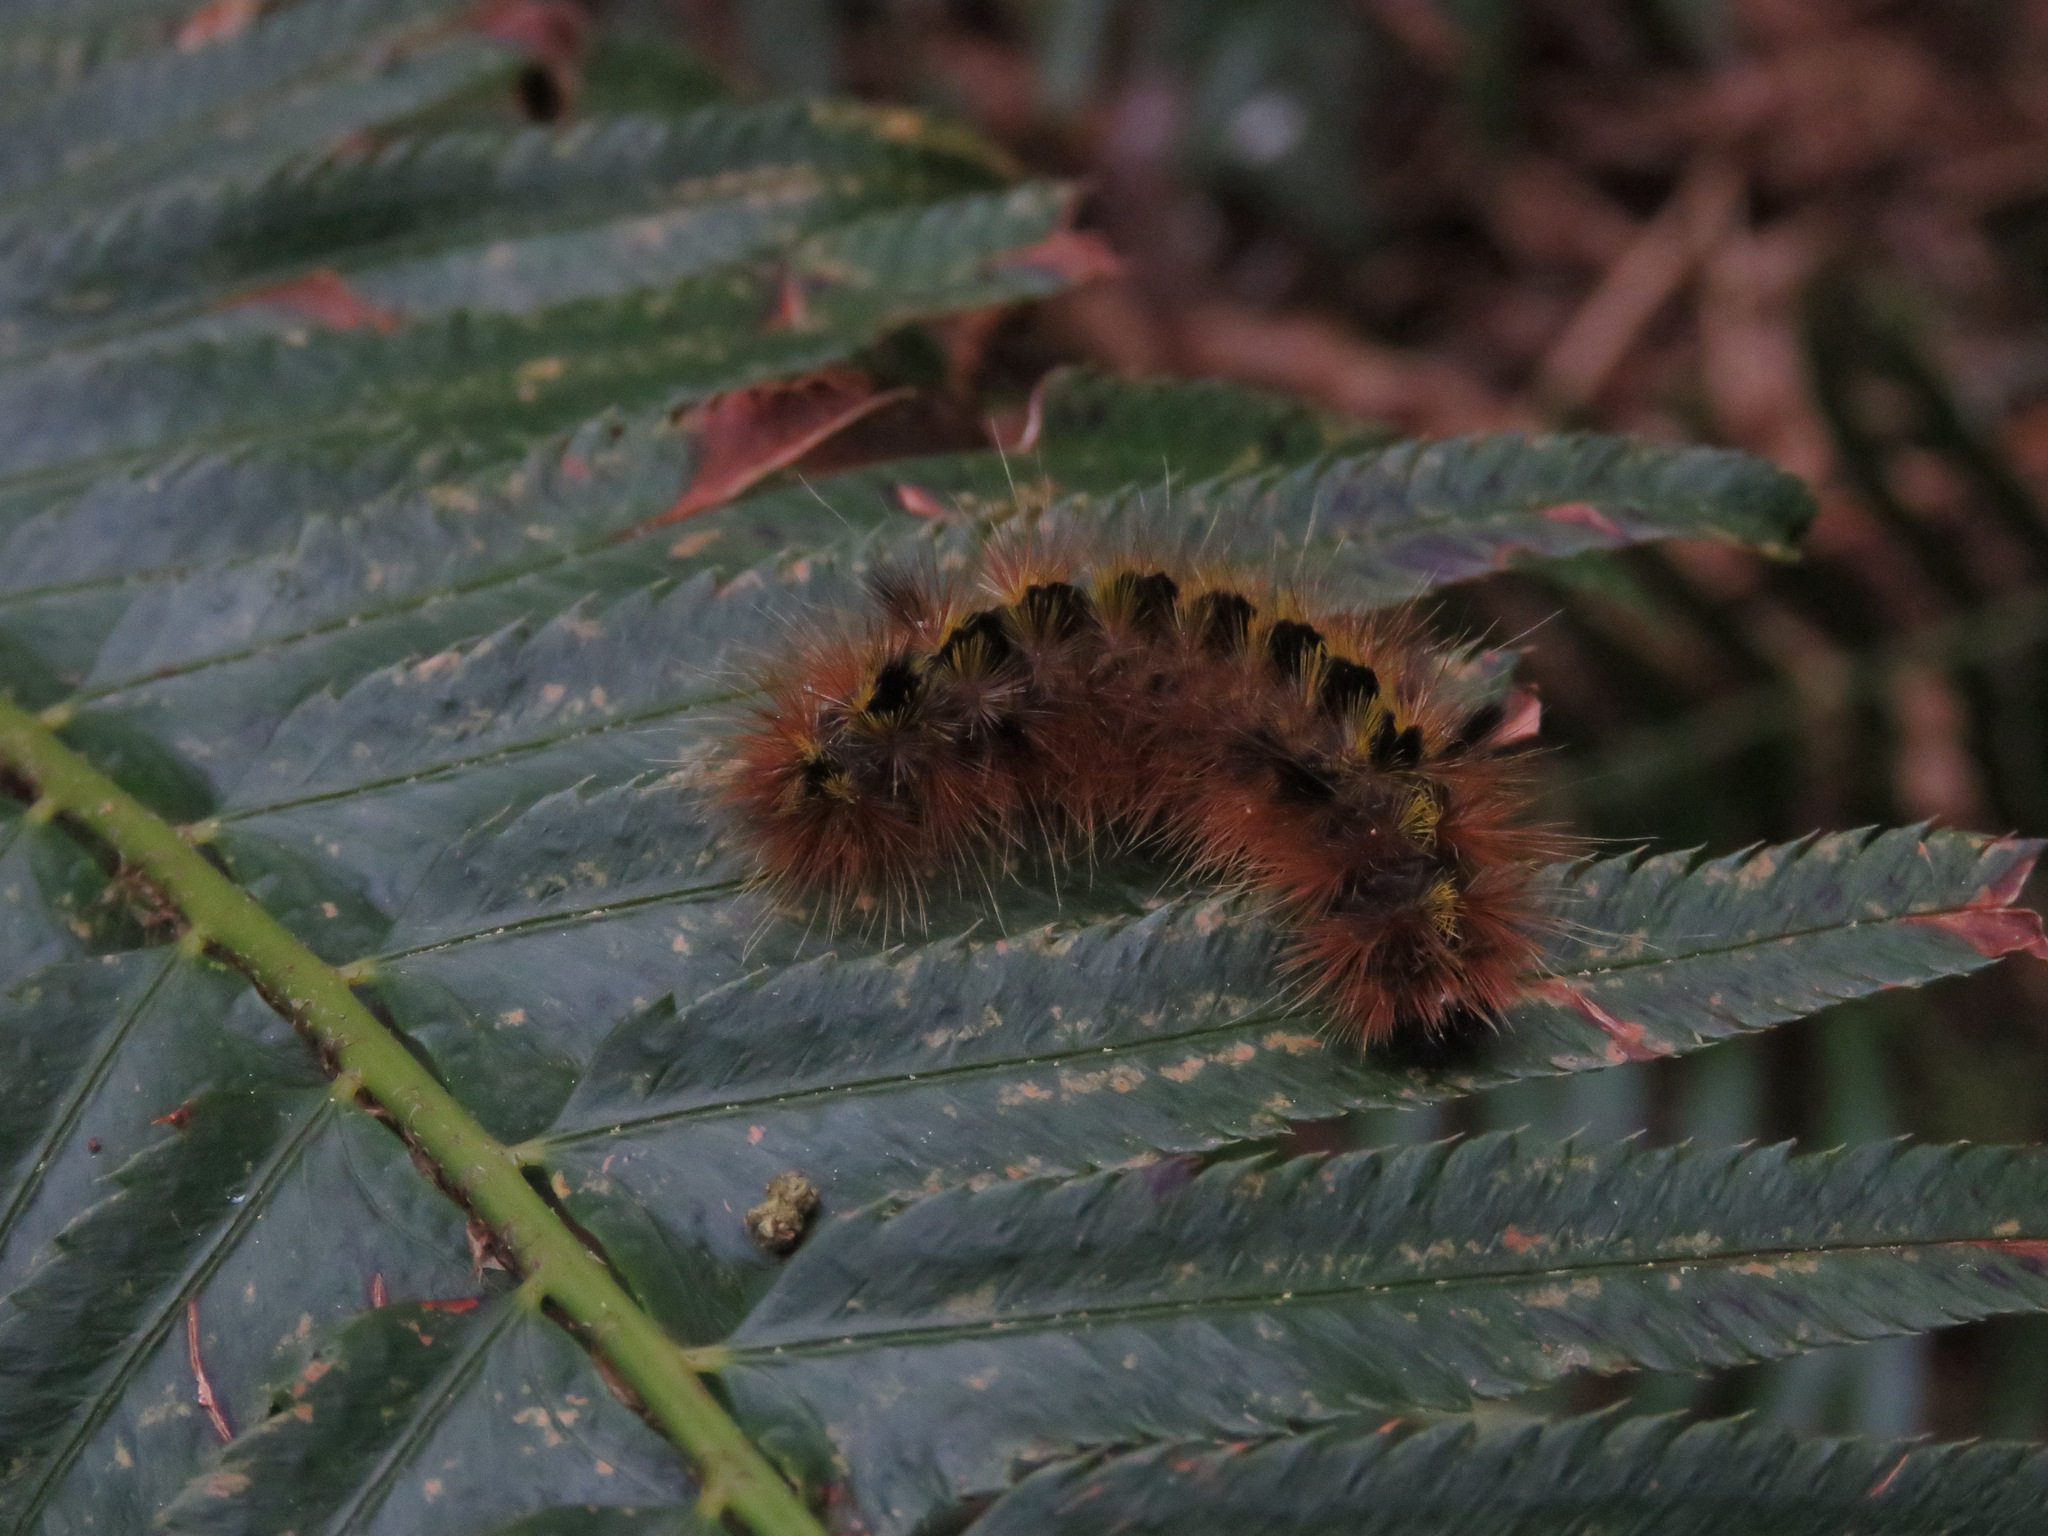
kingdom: Animalia
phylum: Arthropoda
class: Insecta
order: Lepidoptera
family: Erebidae
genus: Lophocampa
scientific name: Lophocampa argentata
